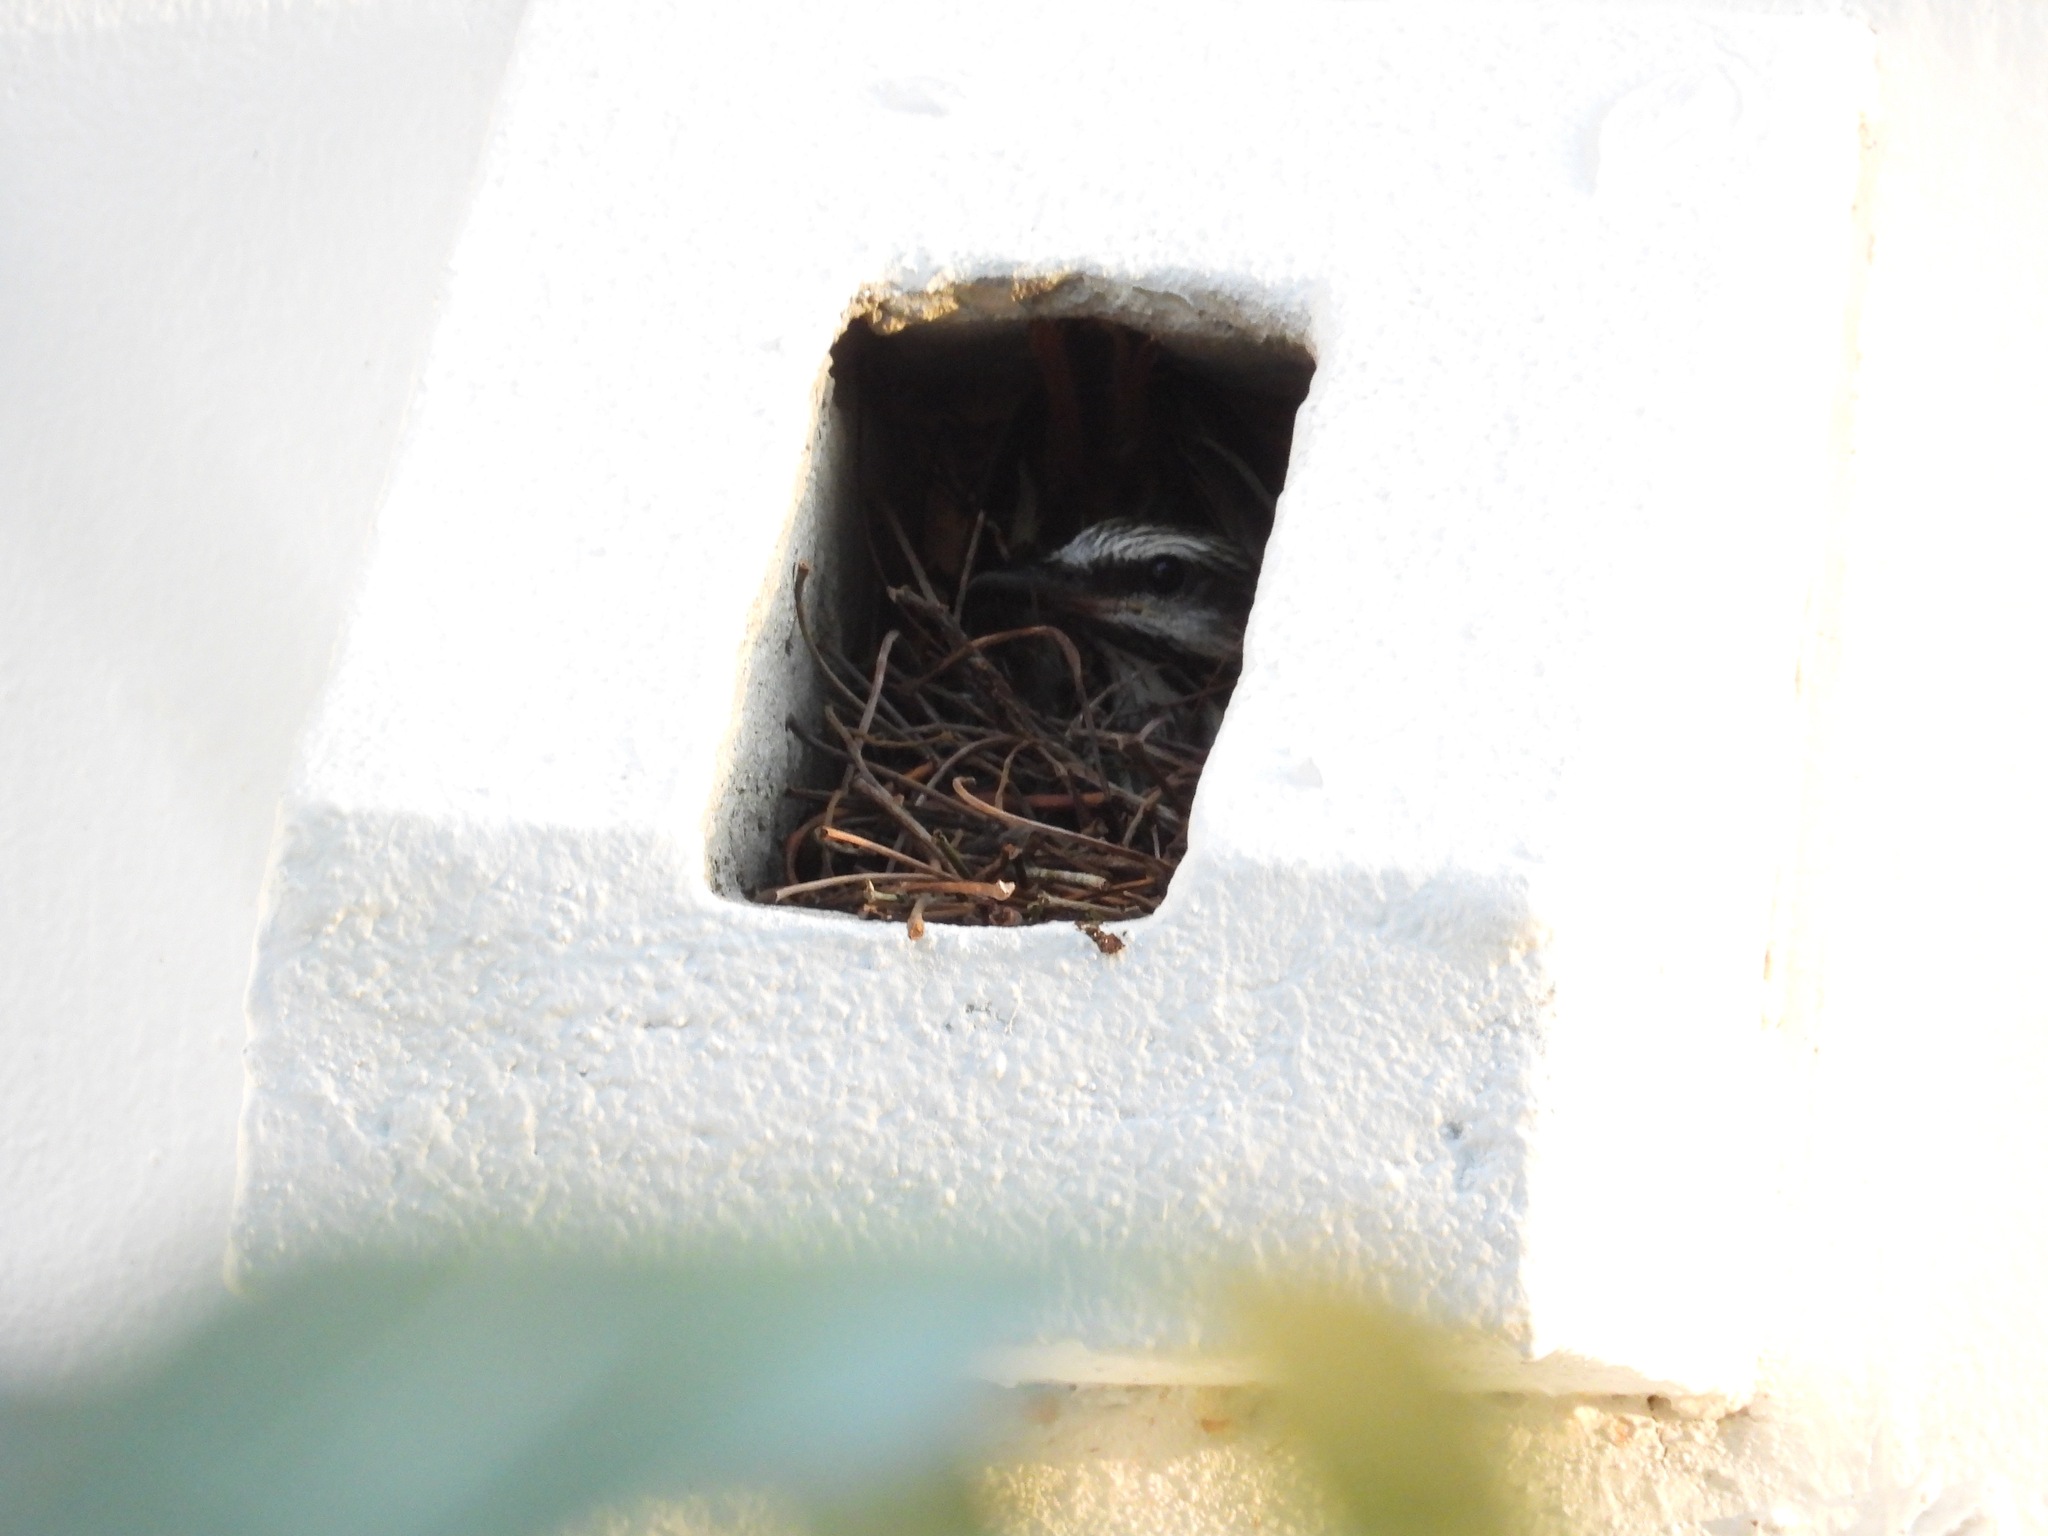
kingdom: Animalia
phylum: Chordata
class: Aves
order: Passeriformes
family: Tyrannidae
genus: Myiodynastes
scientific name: Myiodynastes luteiventris
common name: Sulphur-bellied flycatcher
